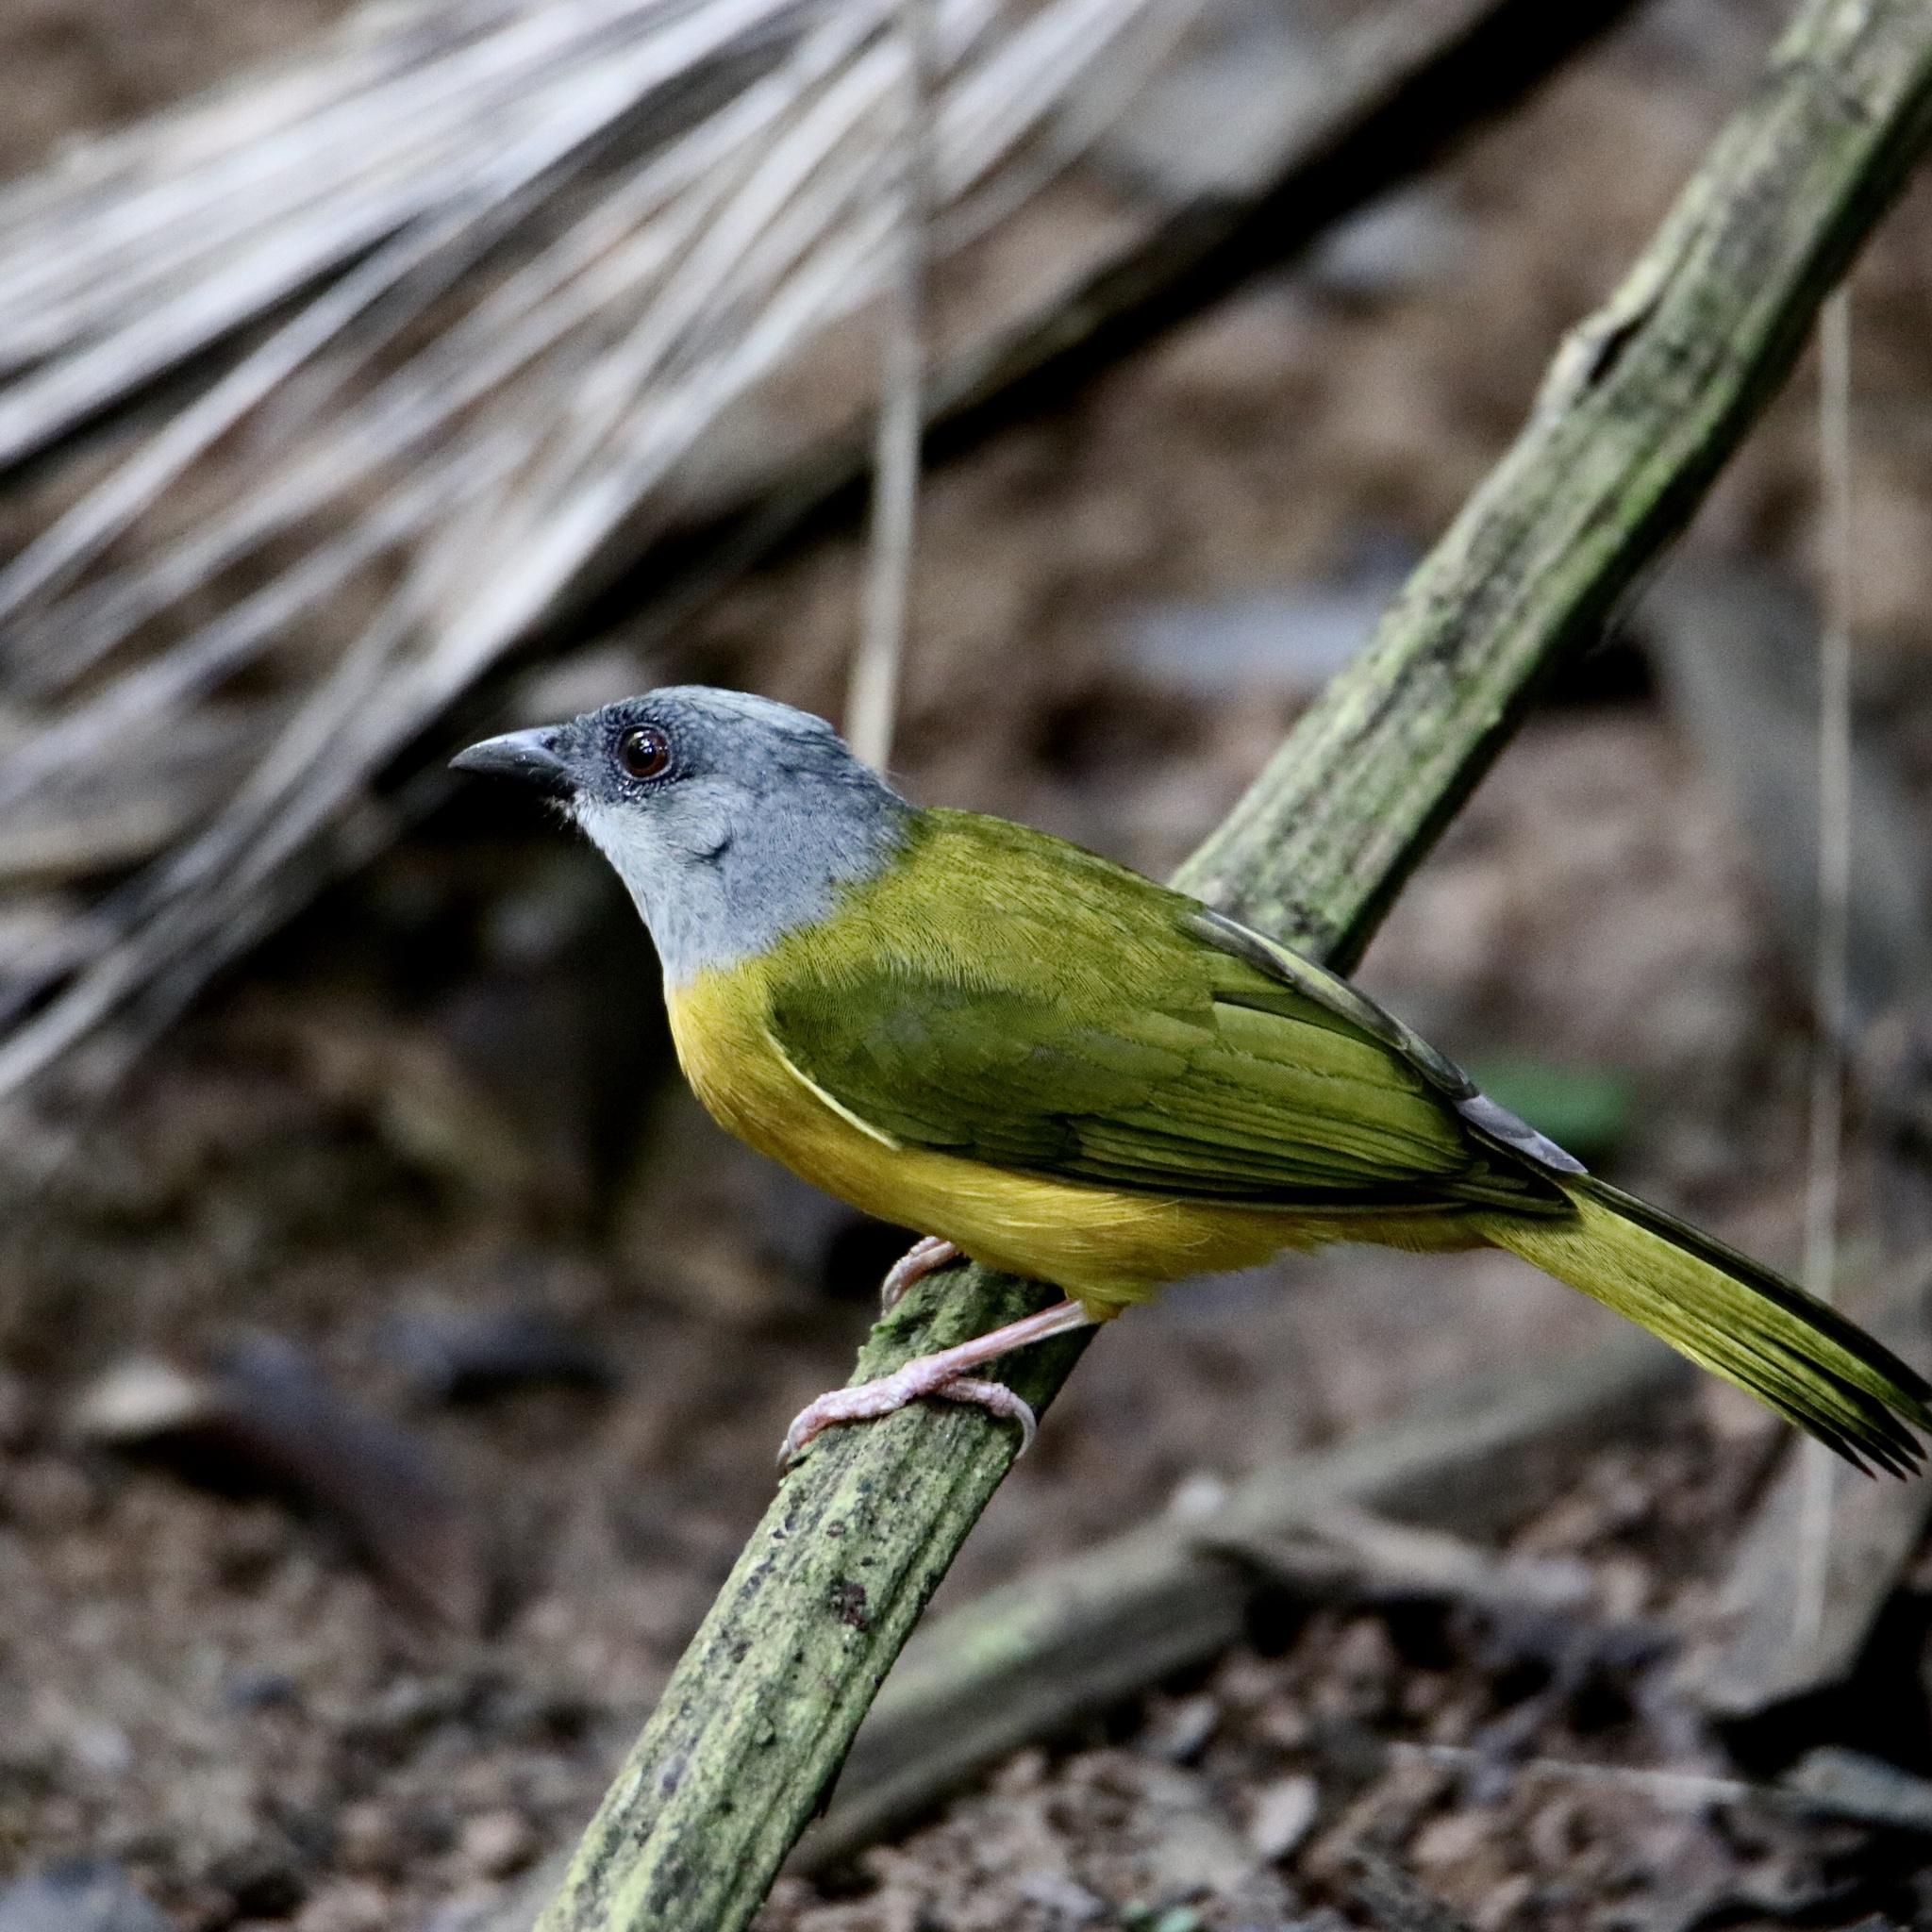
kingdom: Animalia
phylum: Chordata
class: Aves
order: Passeriformes
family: Thraupidae
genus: Eucometis
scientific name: Eucometis penicillata
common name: Grey-headed tanager
